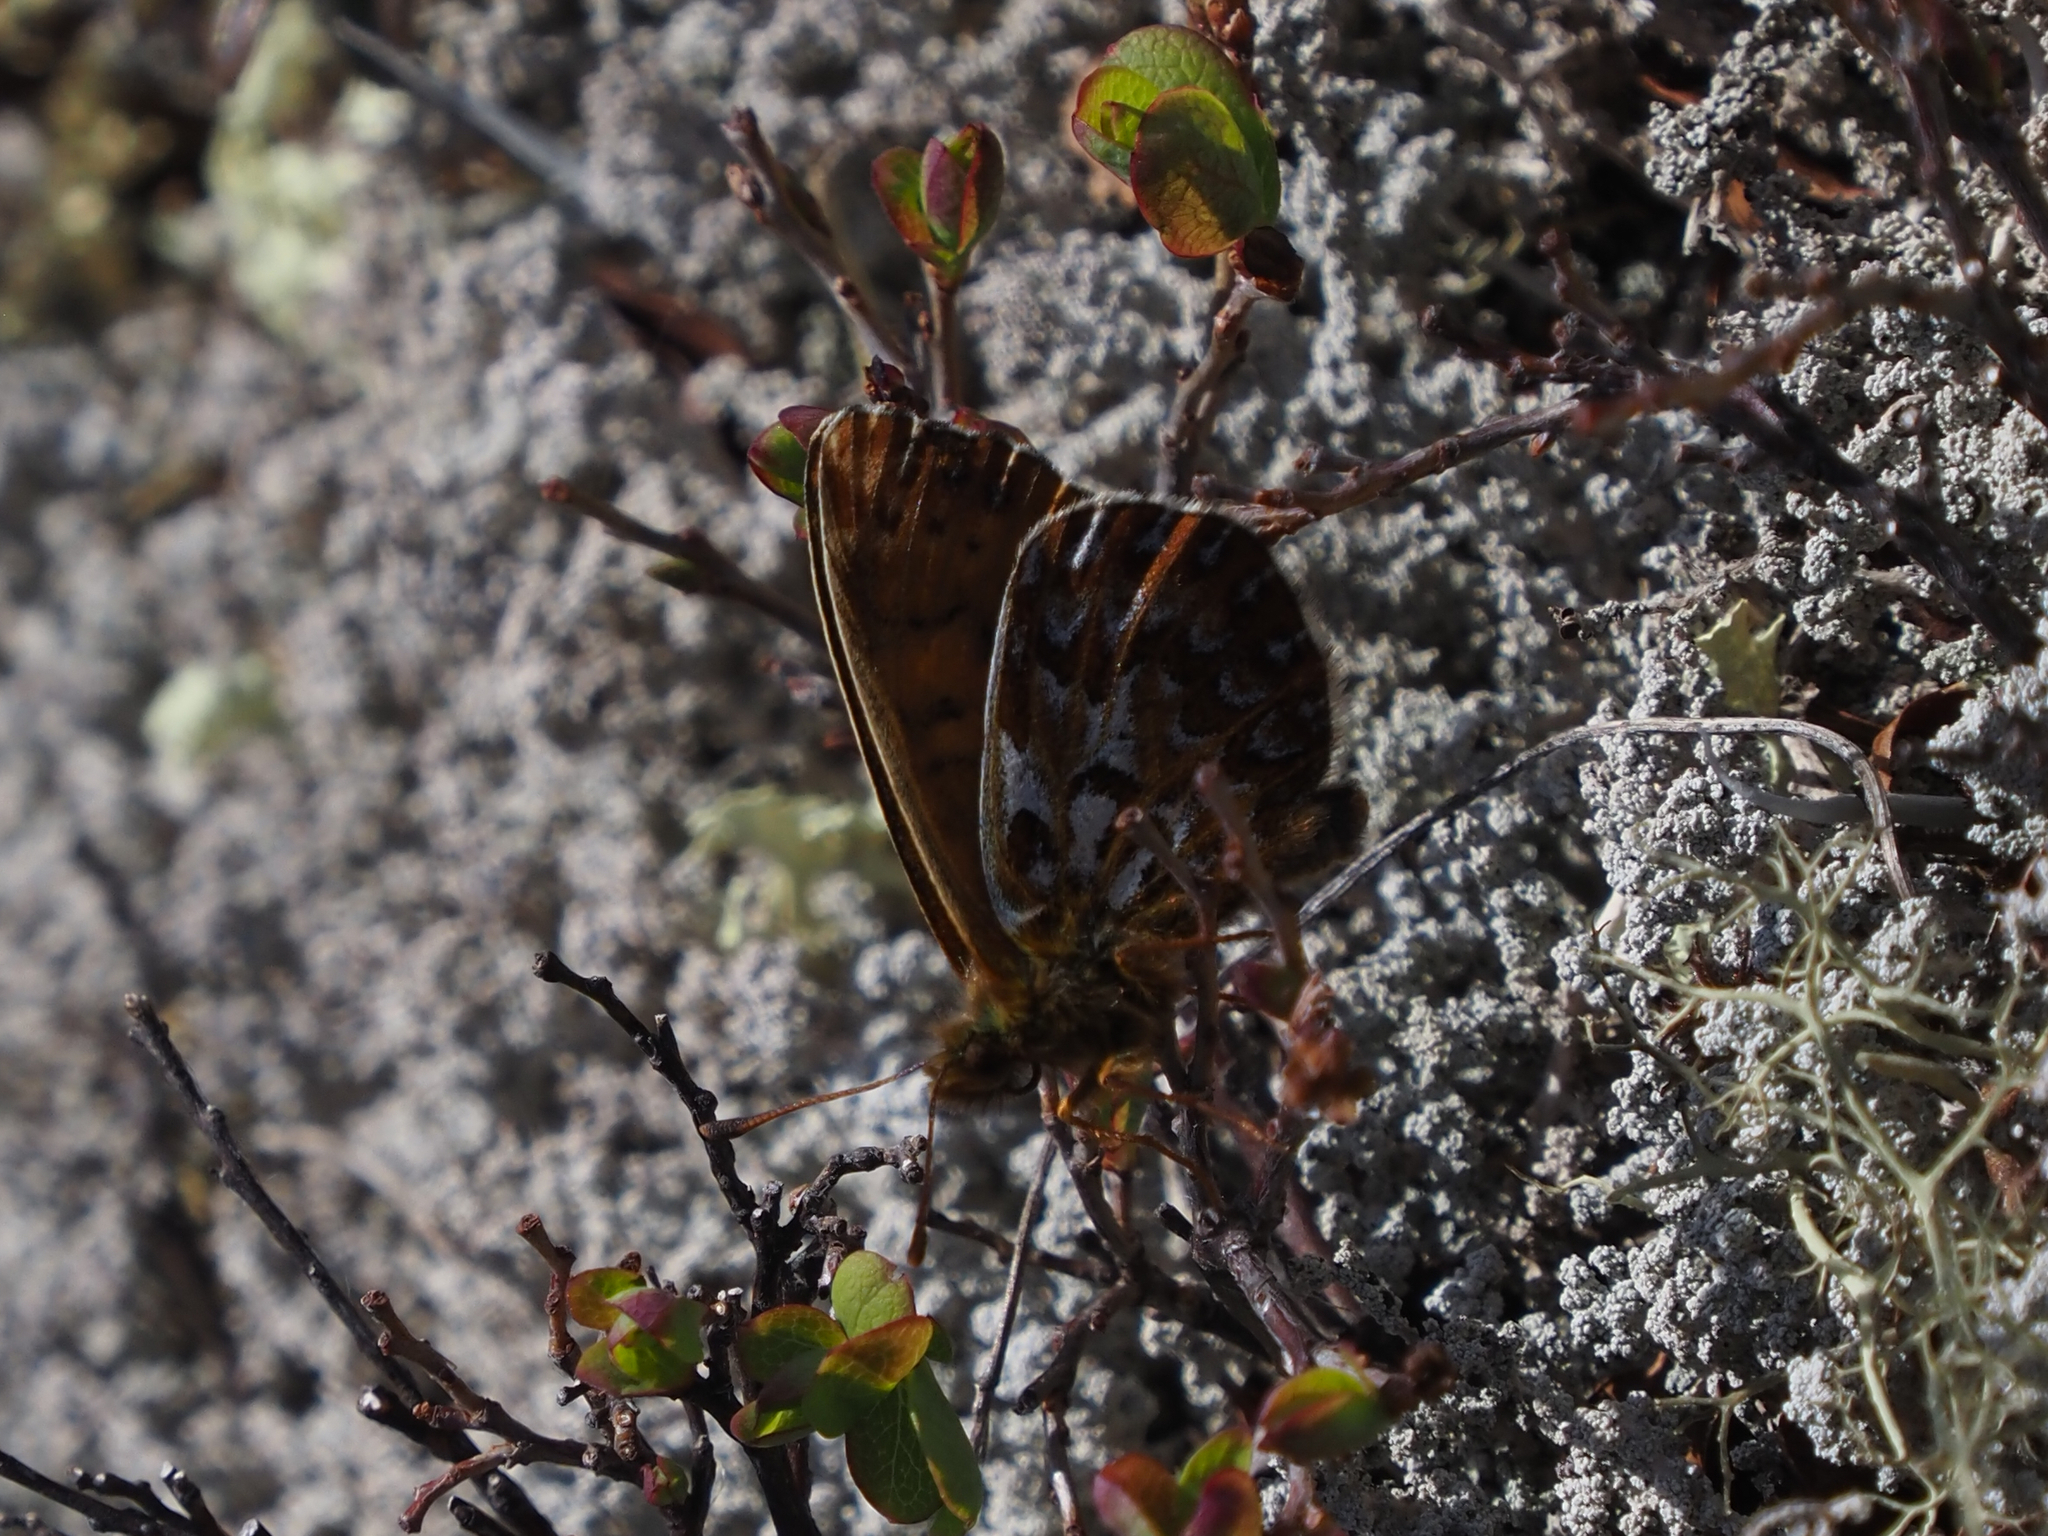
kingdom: Animalia
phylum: Arthropoda
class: Insecta
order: Lepidoptera
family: Nymphalidae
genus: Clossiana
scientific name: Clossiana polaris
